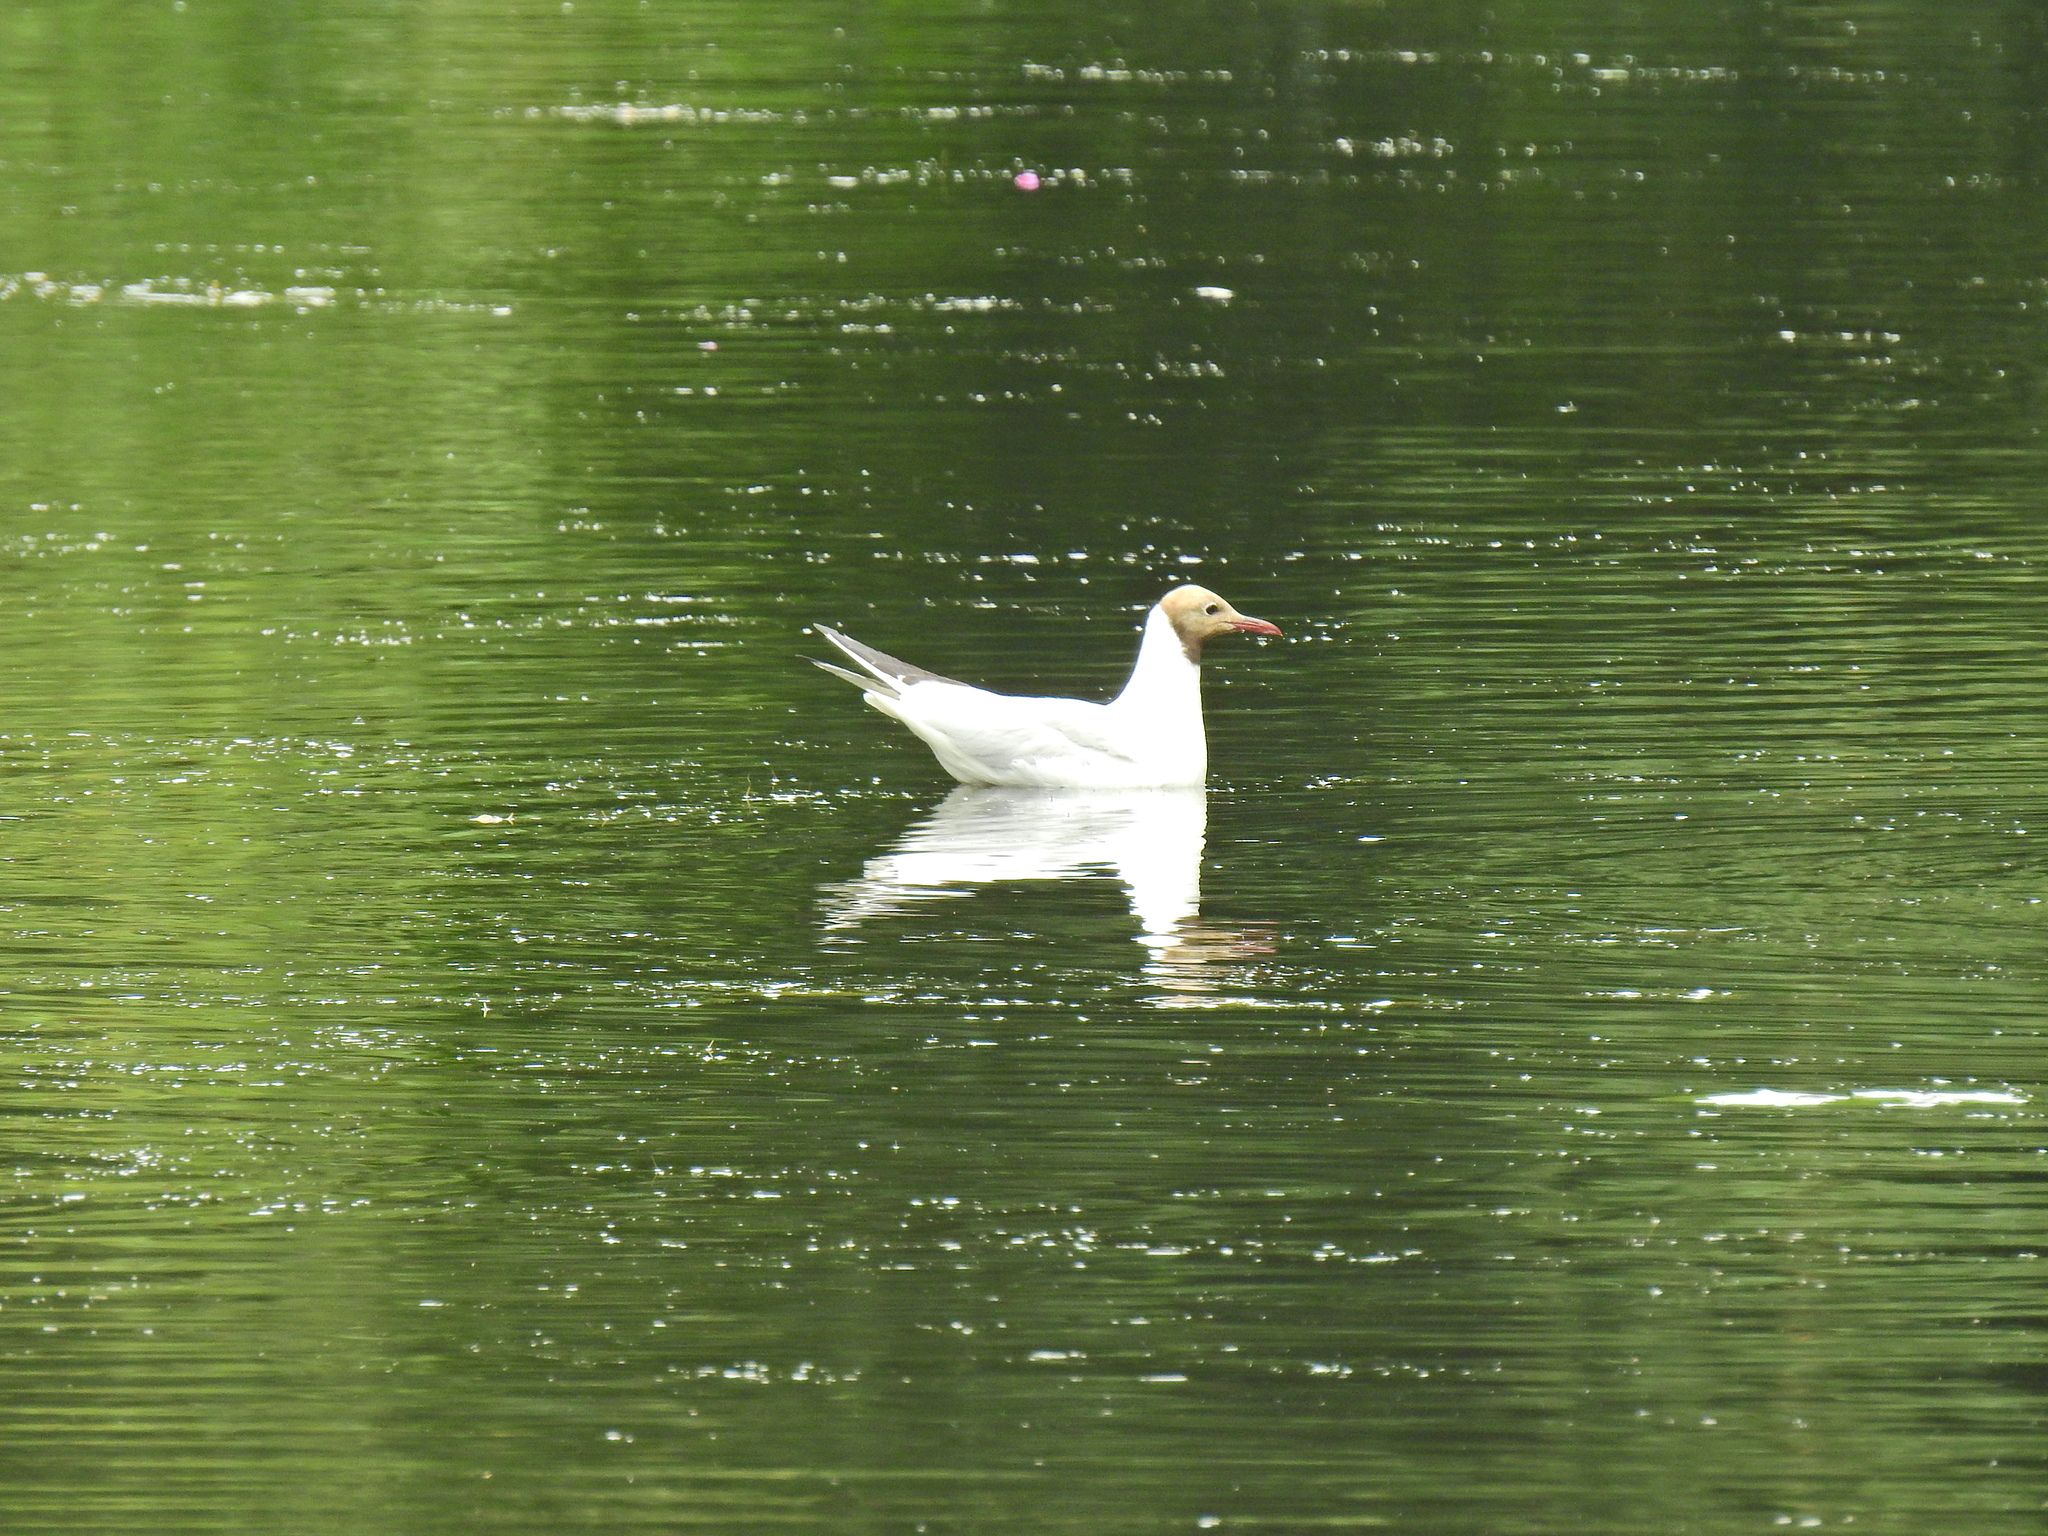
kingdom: Animalia
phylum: Chordata
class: Aves
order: Charadriiformes
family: Laridae
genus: Chroicocephalus
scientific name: Chroicocephalus ridibundus
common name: Black-headed gull
